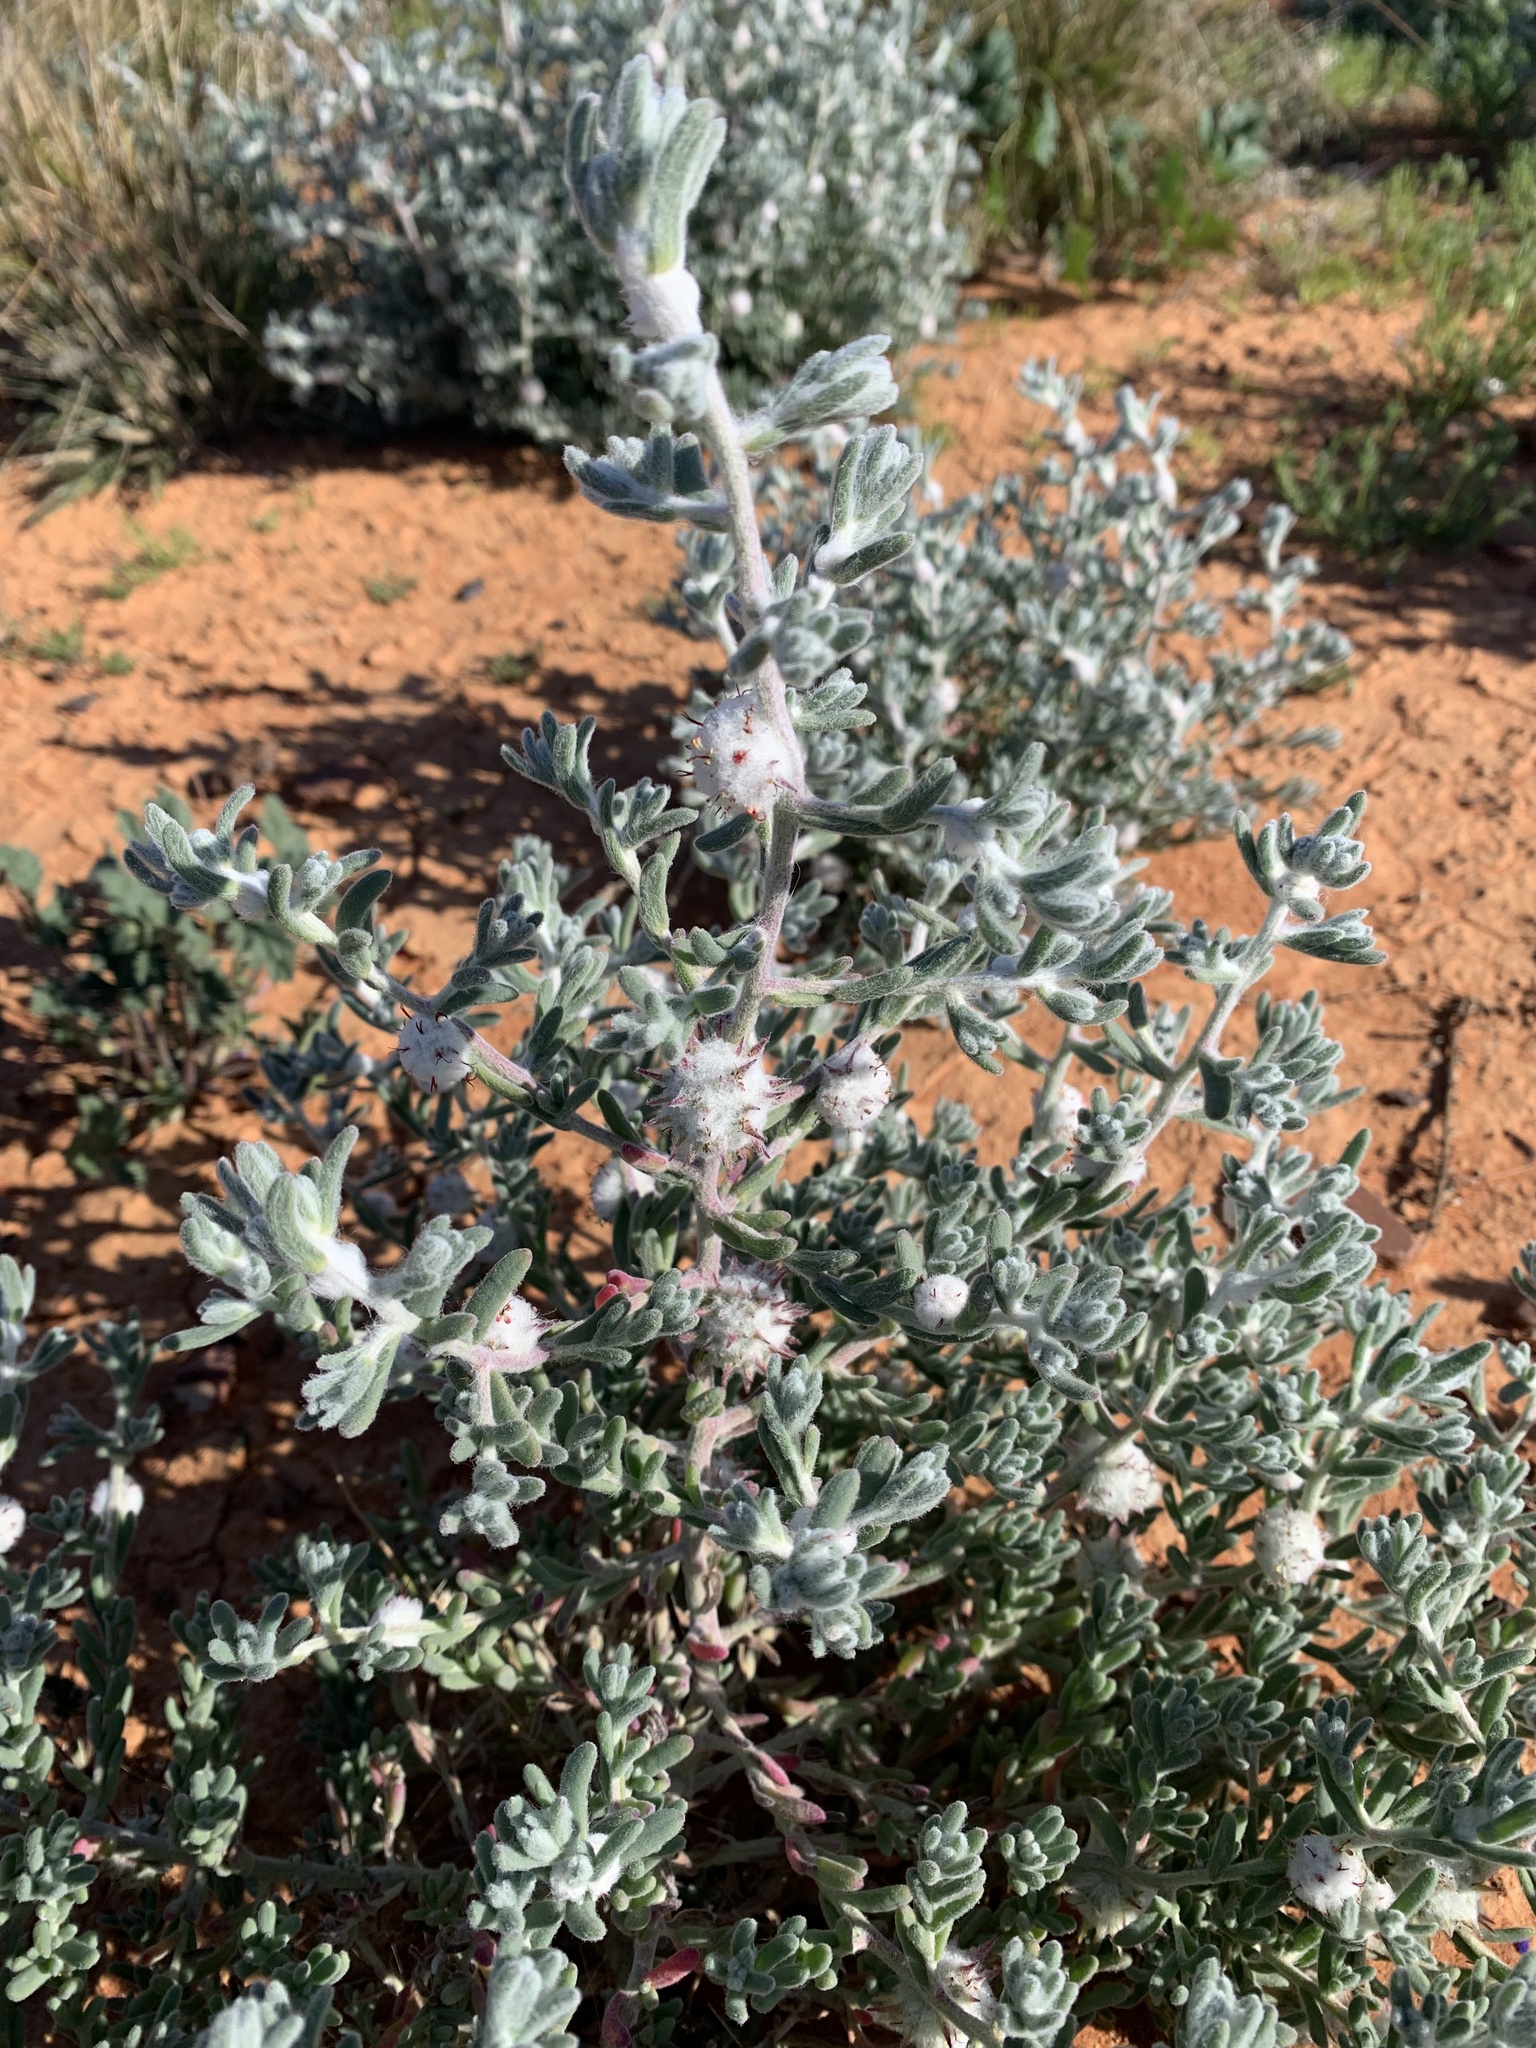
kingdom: Plantae
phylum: Tracheophyta
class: Magnoliopsida
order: Caryophyllales
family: Amaranthaceae
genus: Dissocarpus
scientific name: Dissocarpus paradoxus
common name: Bur-saltbush
